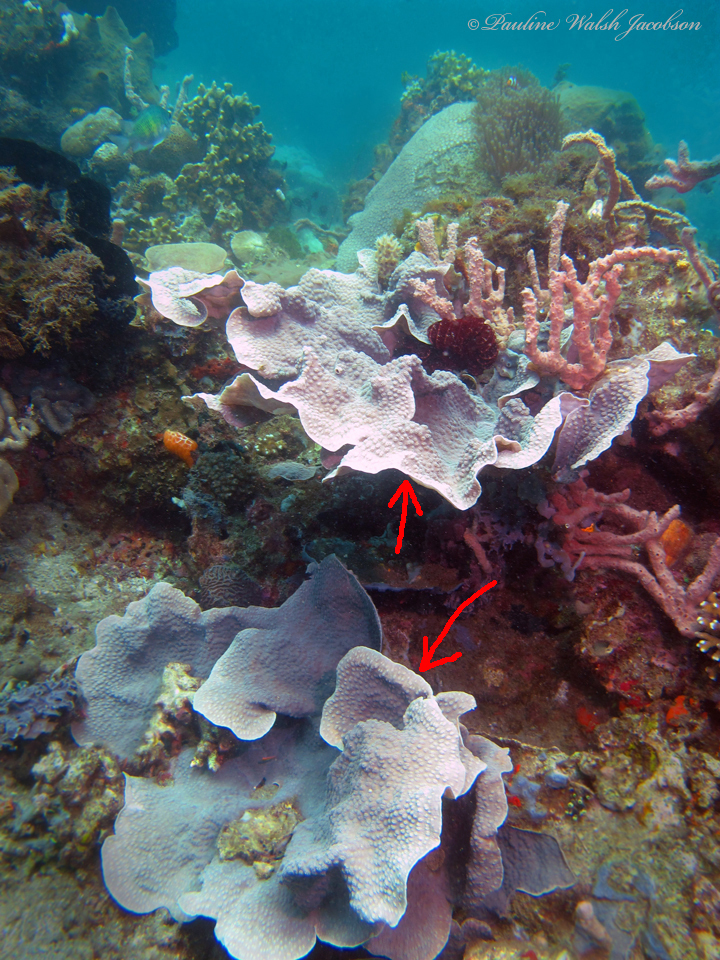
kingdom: Animalia
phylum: Cnidaria
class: Anthozoa
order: Scleractinia
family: Merulinidae
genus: Echinopora
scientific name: Echinopora lamellosa
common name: Hedgehog coral
